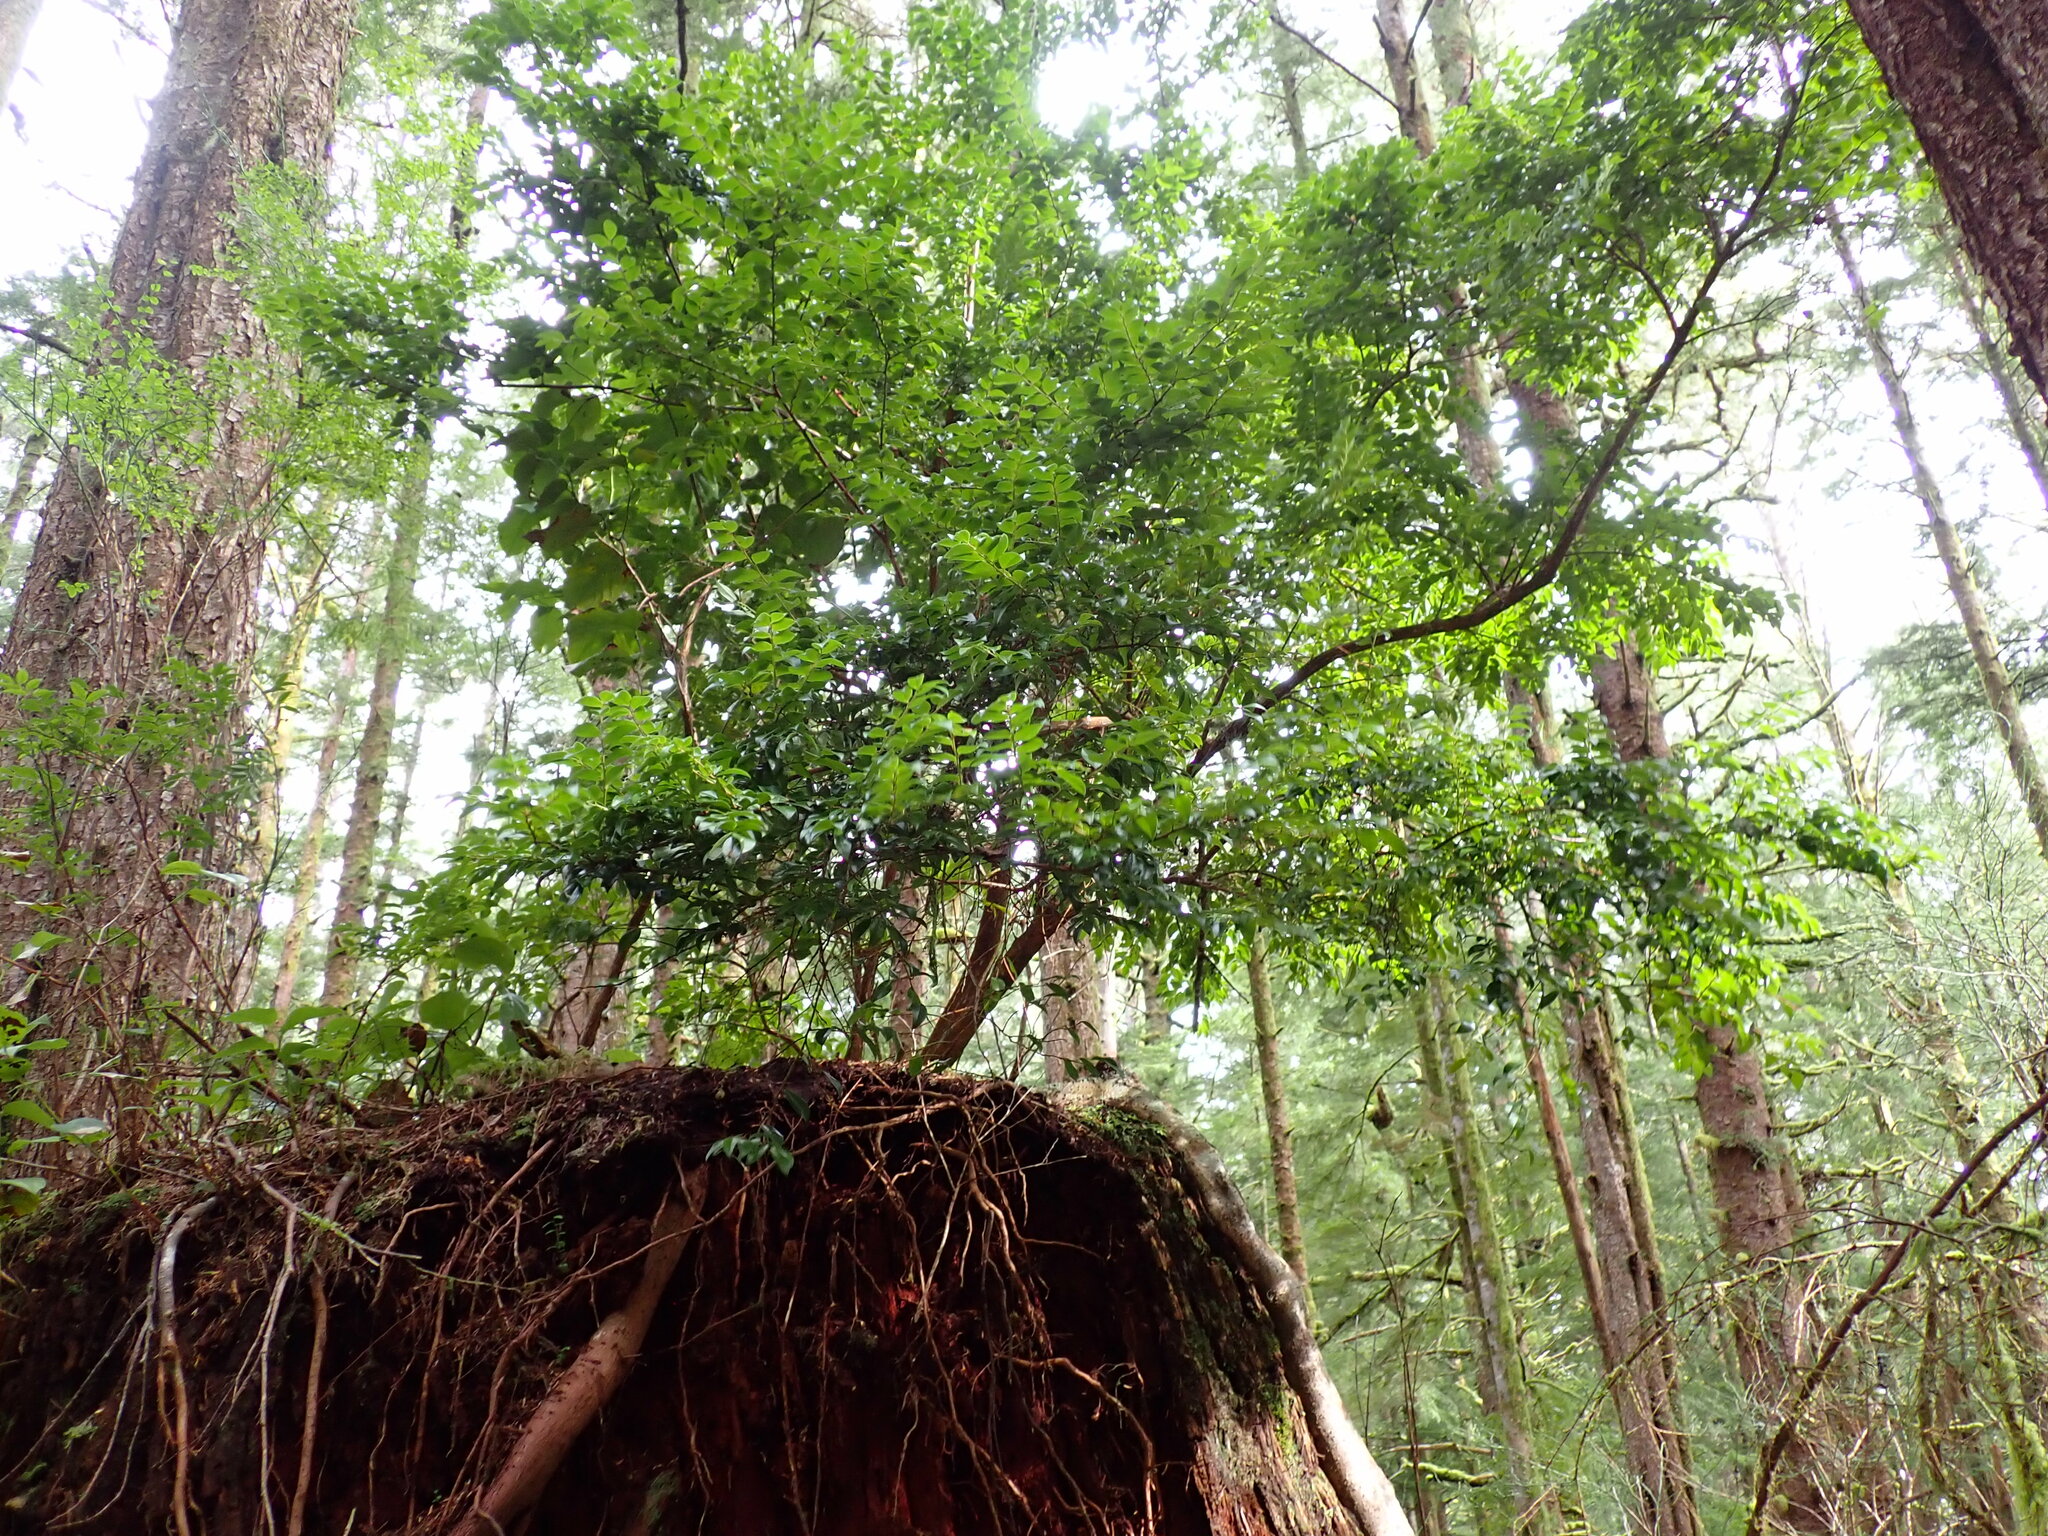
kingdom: Plantae
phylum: Tracheophyta
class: Magnoliopsida
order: Ericales
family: Ericaceae
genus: Vaccinium
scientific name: Vaccinium ovatum
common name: California-huckleberry
